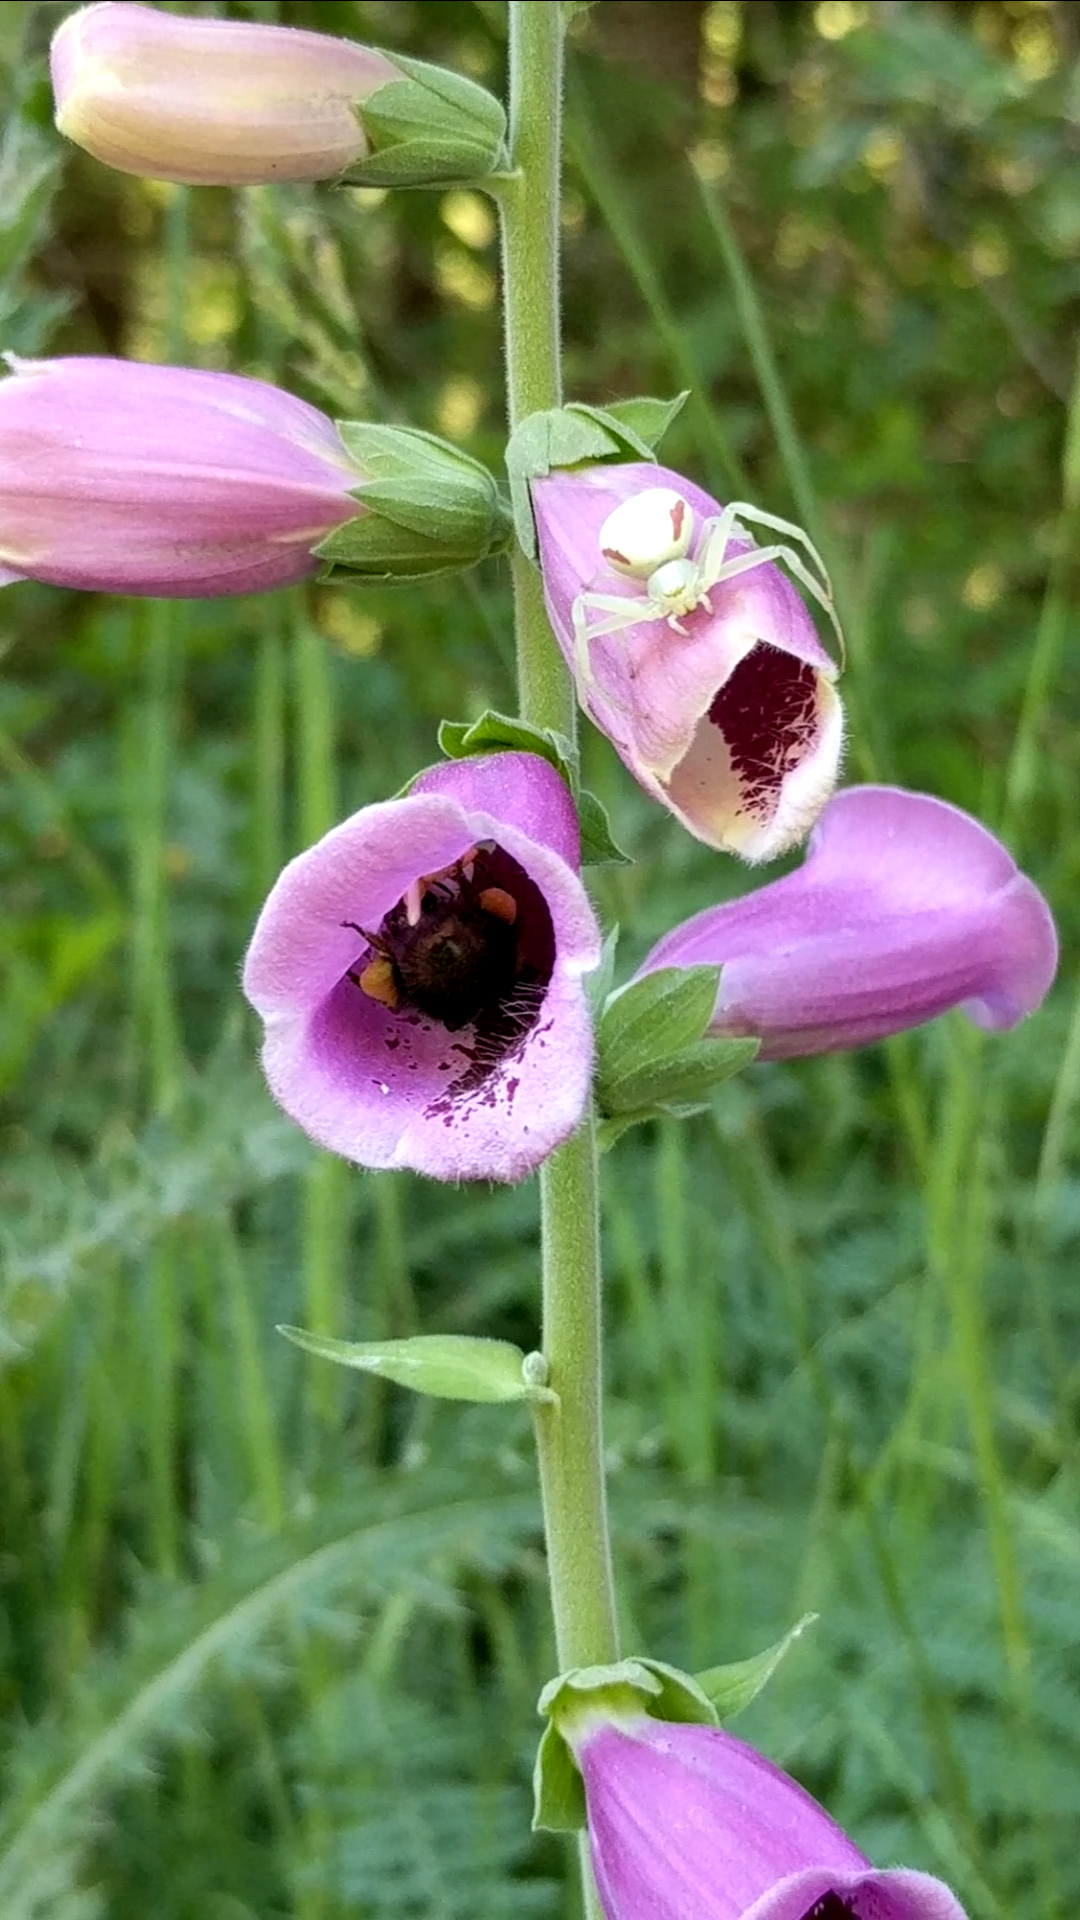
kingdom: Animalia
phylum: Arthropoda
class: Arachnida
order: Araneae
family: Thomisidae
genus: Misumena
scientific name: Misumena vatia
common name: Goldenrod crab spider
